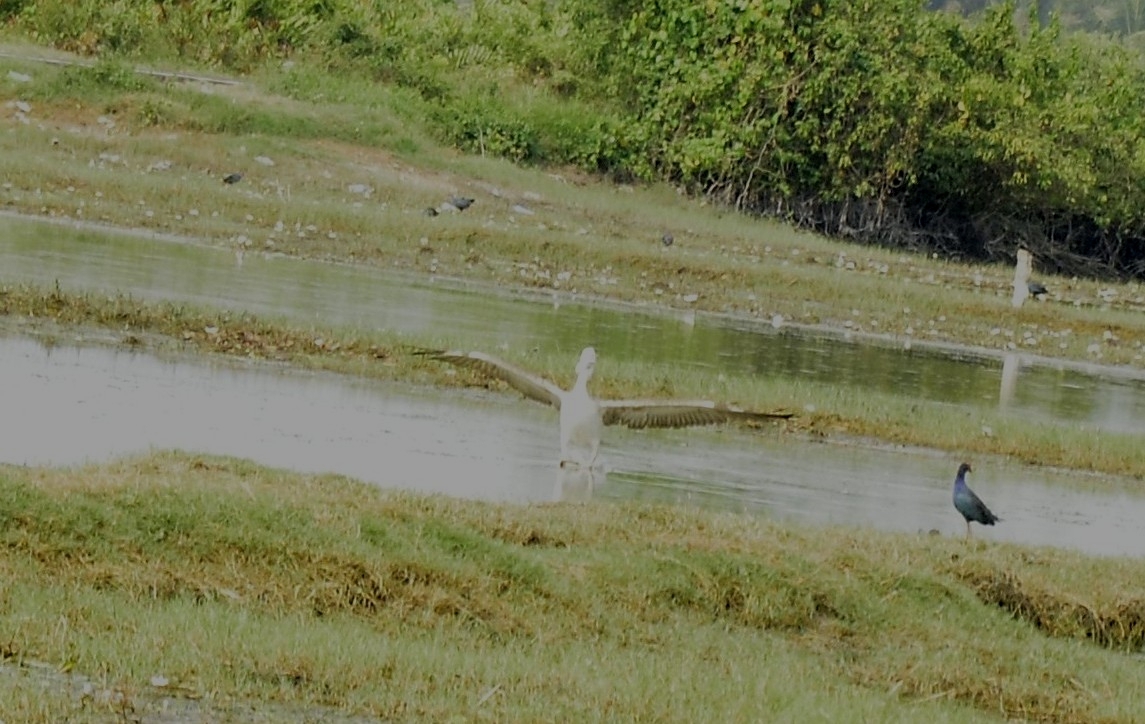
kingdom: Animalia
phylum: Chordata
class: Aves
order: Pelecaniformes
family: Pelecanidae
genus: Pelecanus
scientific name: Pelecanus philippensis
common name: Spot-billed pelican
